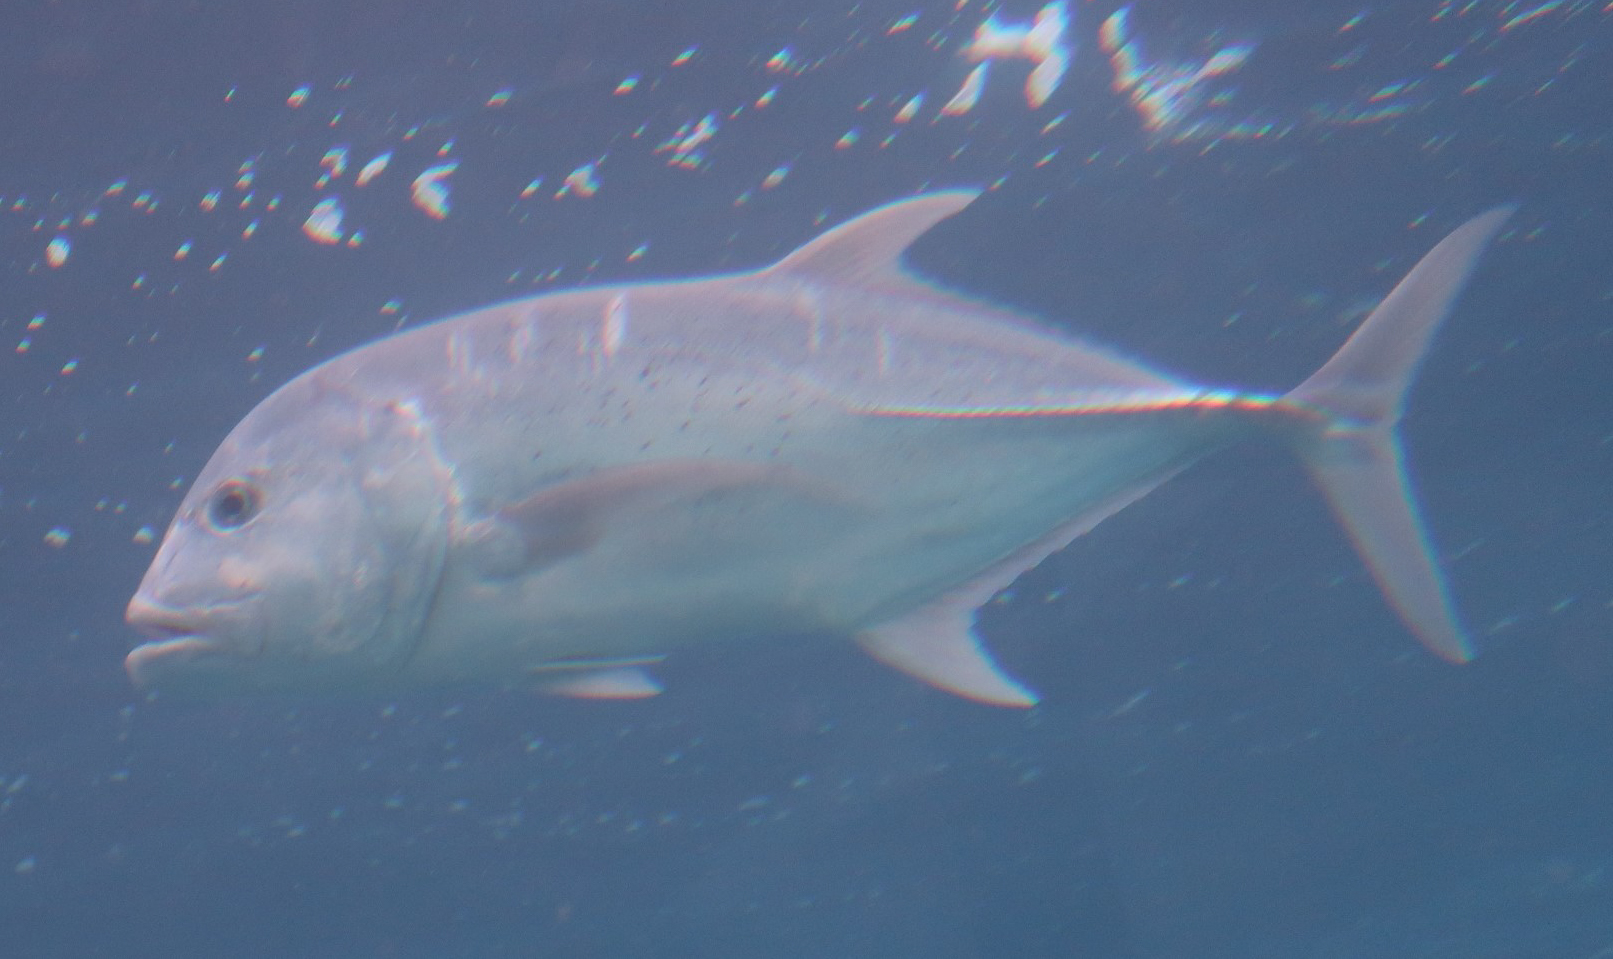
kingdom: Animalia
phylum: Chordata
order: Perciformes
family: Carangidae
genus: Caranx
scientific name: Caranx ignobilis
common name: Giant trevally
